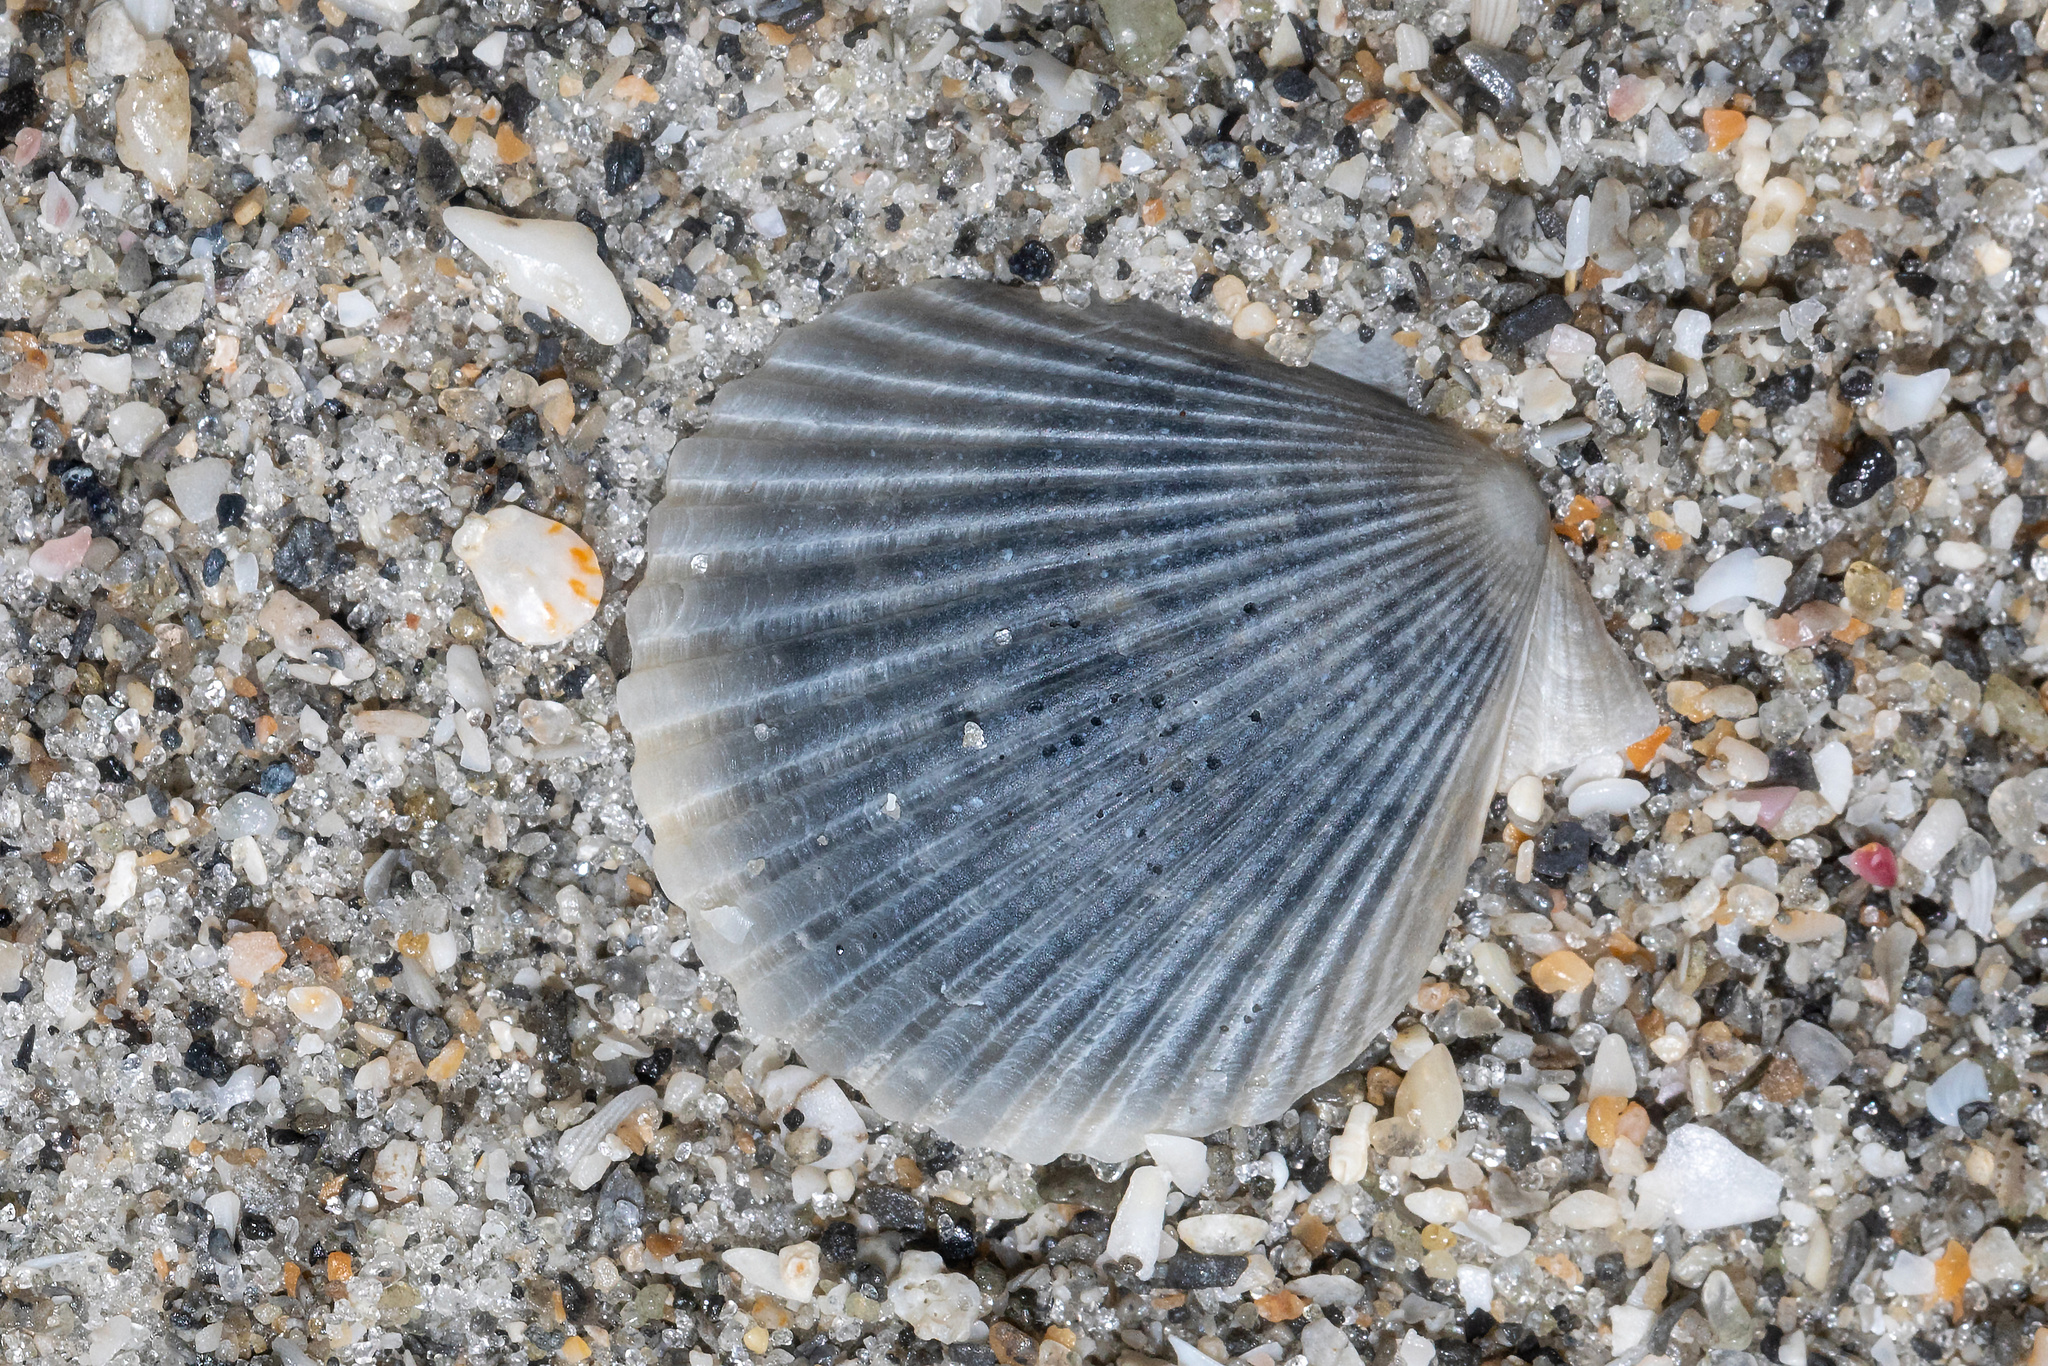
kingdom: Animalia
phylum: Mollusca
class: Bivalvia
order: Pectinida
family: Pectinidae
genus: Argopecten
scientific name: Argopecten irradians
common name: Atlantic bay scallop
